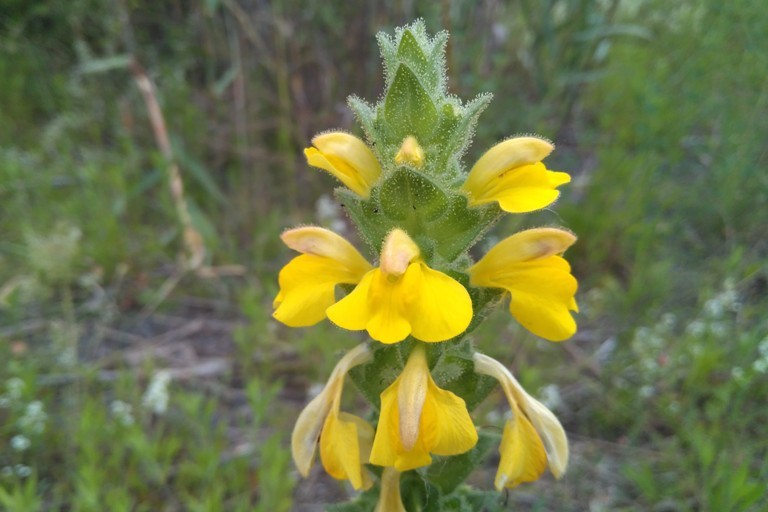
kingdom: Plantae
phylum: Tracheophyta
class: Magnoliopsida
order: Lamiales
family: Orobanchaceae
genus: Bellardia
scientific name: Bellardia trixago
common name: Mediterranean lineseed
